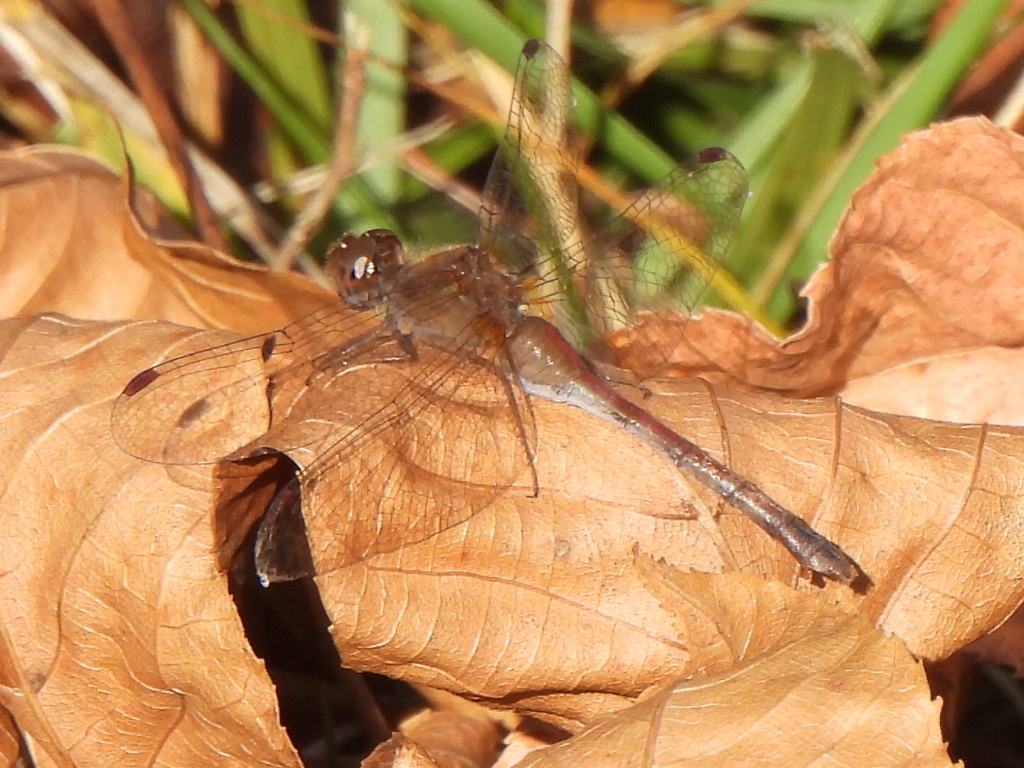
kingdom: Animalia
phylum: Arthropoda
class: Insecta
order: Odonata
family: Libellulidae
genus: Sympetrum
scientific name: Sympetrum vicinum
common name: Autumn meadowhawk
